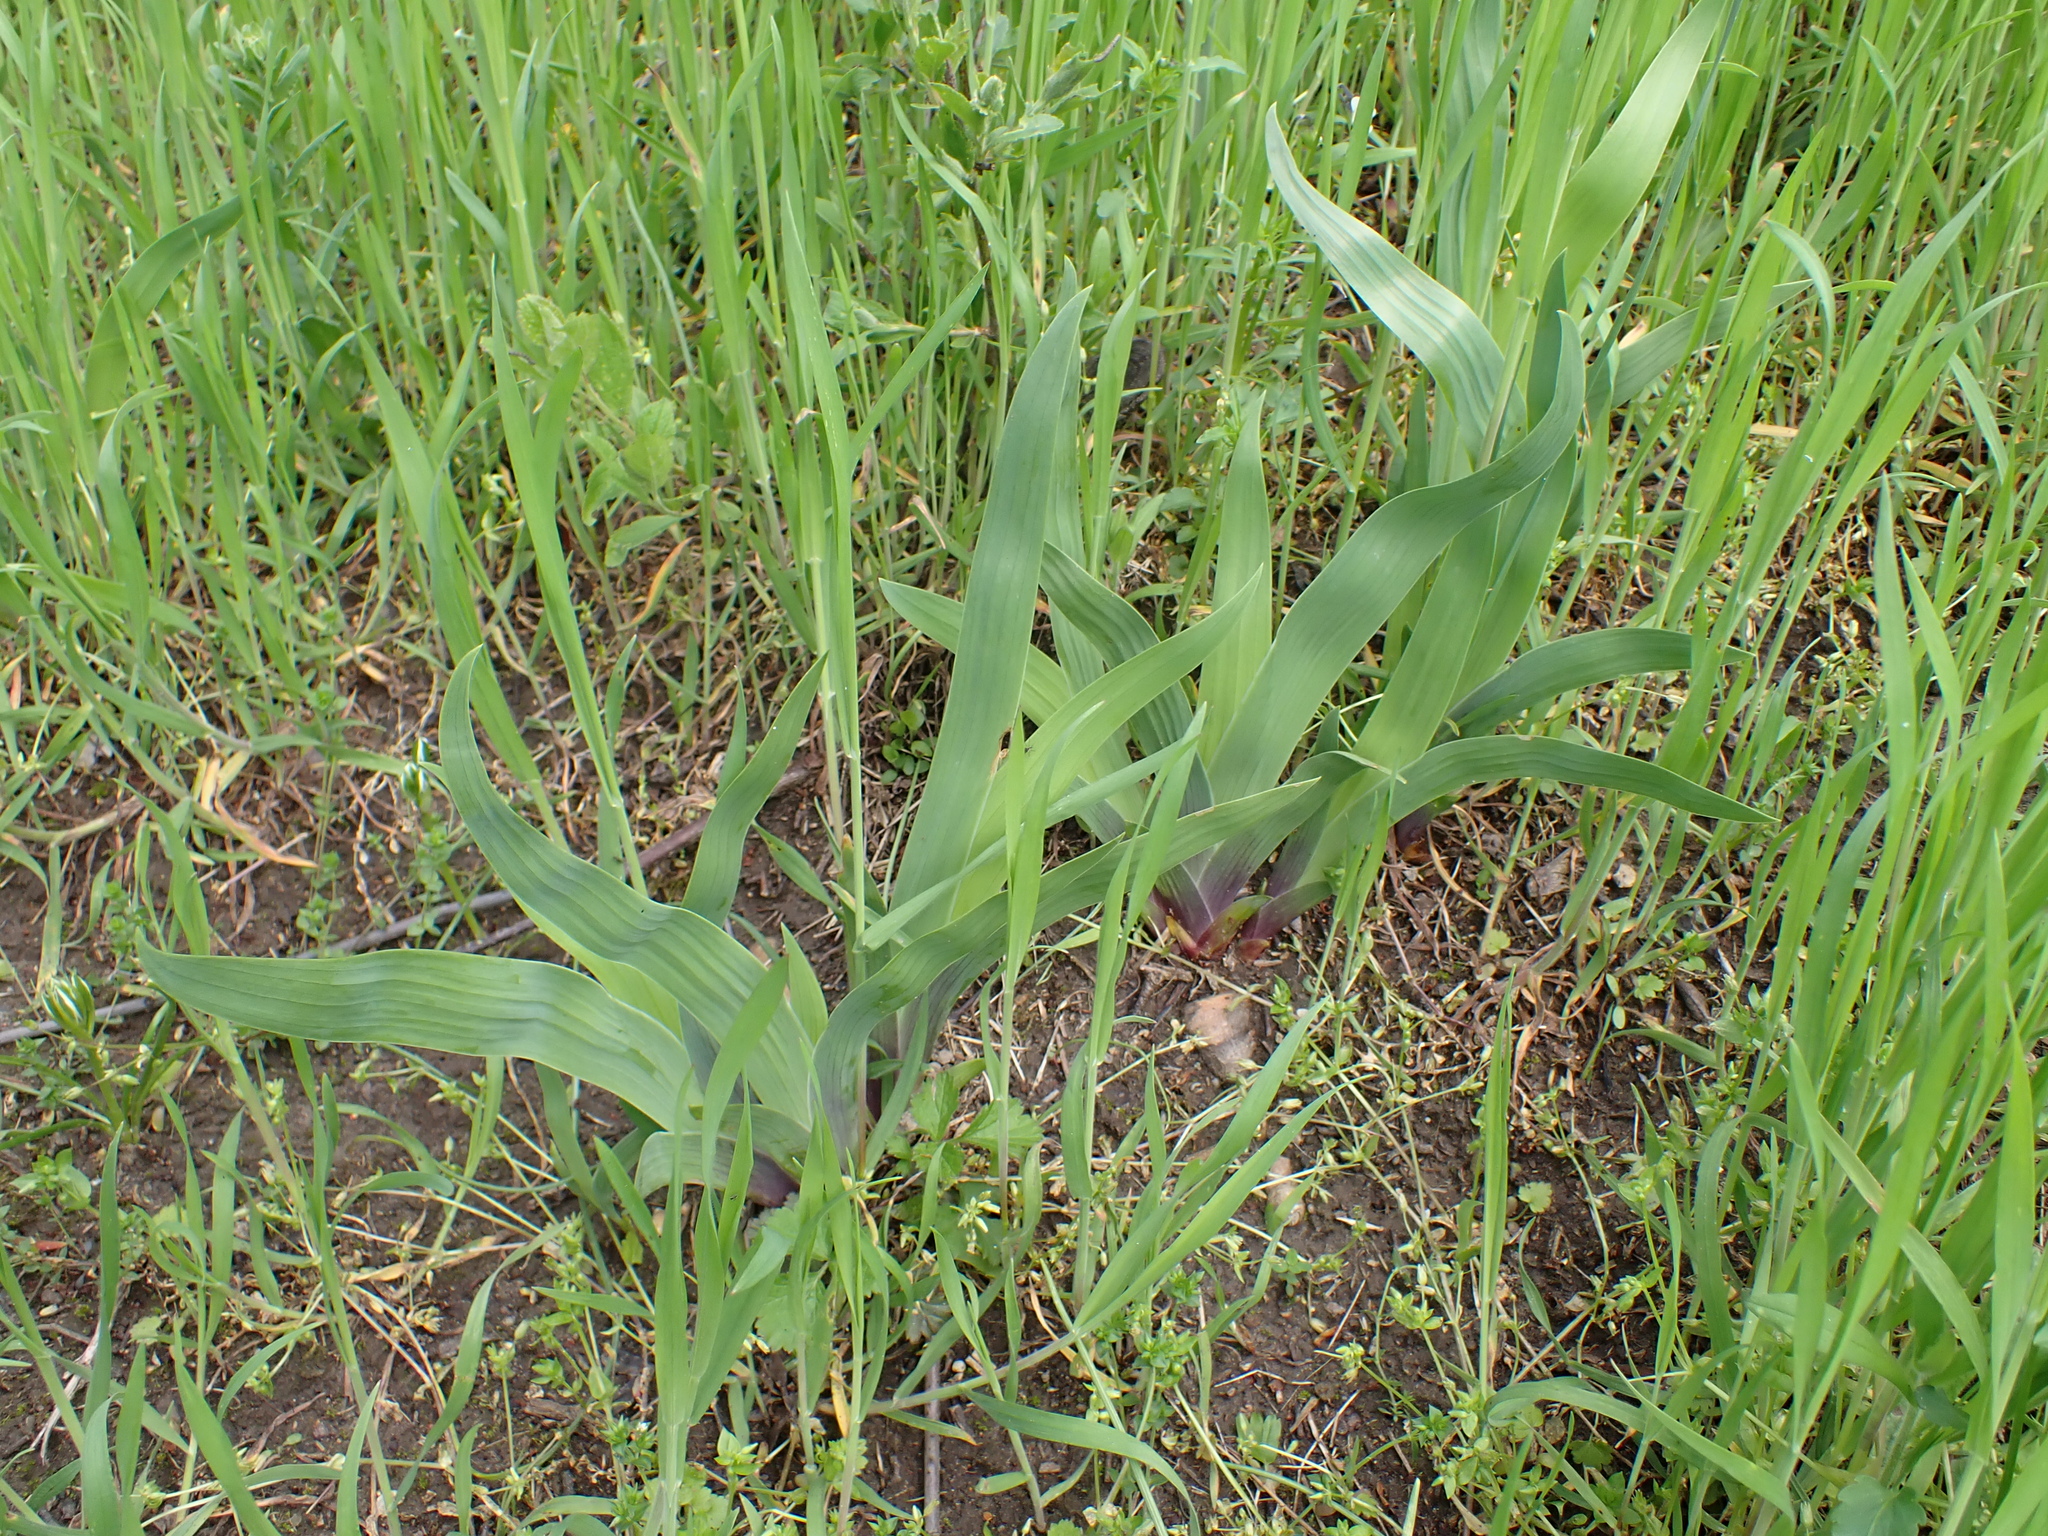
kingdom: Plantae
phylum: Tracheophyta
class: Liliopsida
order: Asparagales
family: Iridaceae
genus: Iris
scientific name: Iris variegata
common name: Hungarian iris
